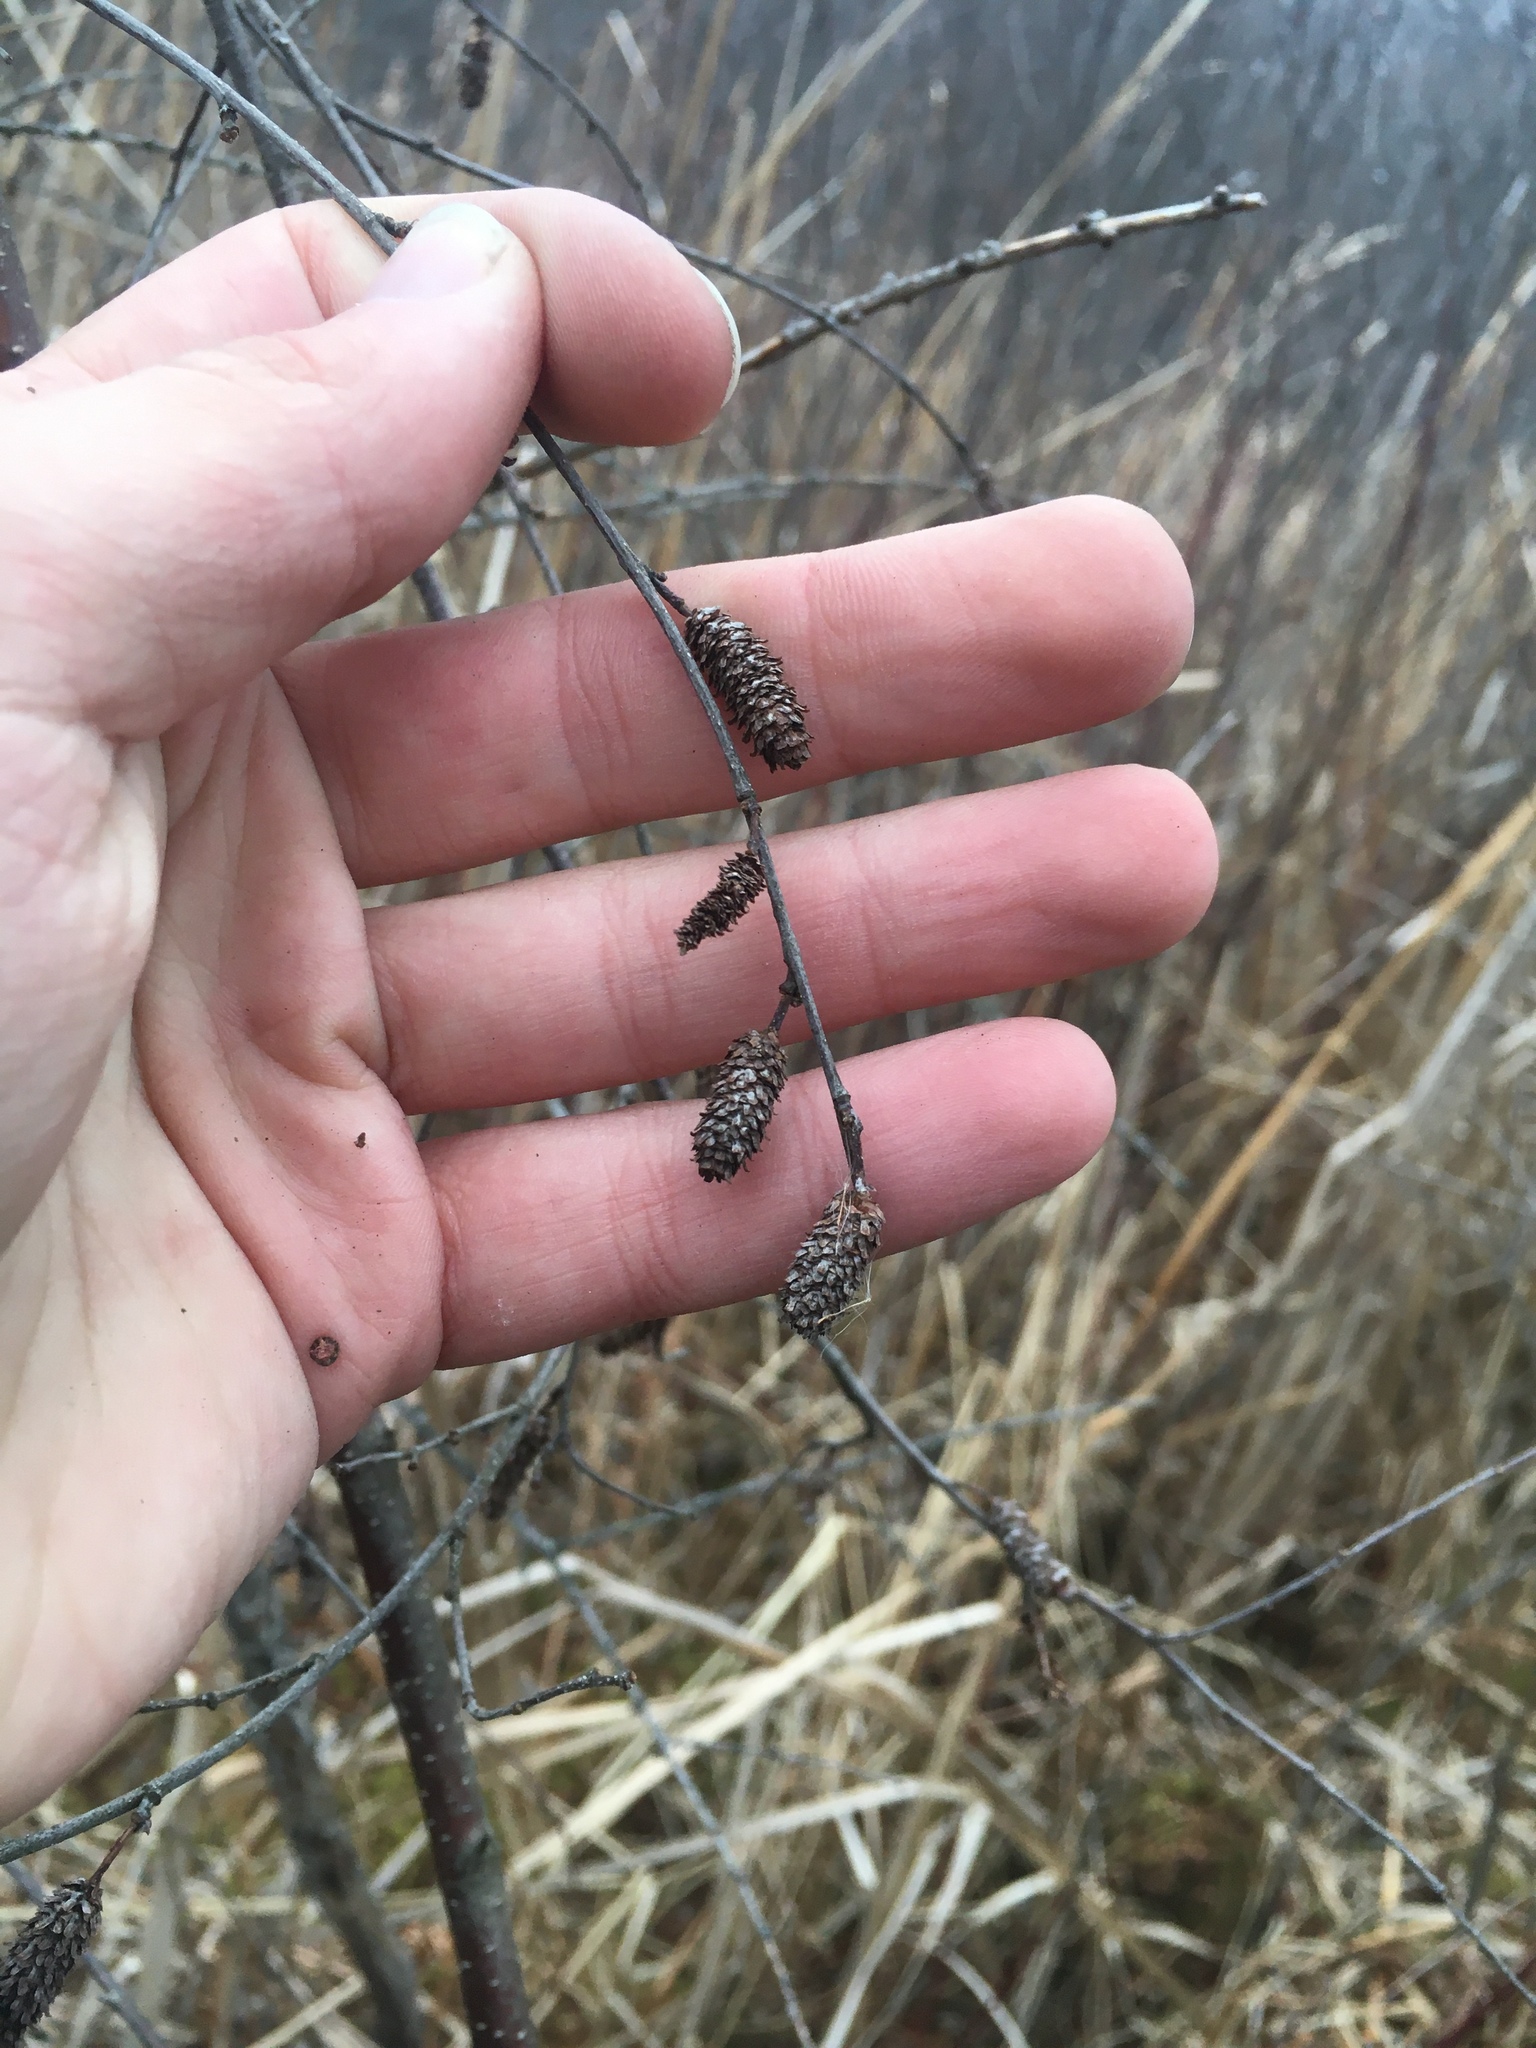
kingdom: Plantae
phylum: Tracheophyta
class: Magnoliopsida
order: Fagales
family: Betulaceae
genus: Betula
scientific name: Betula pumila
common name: Bog birch
